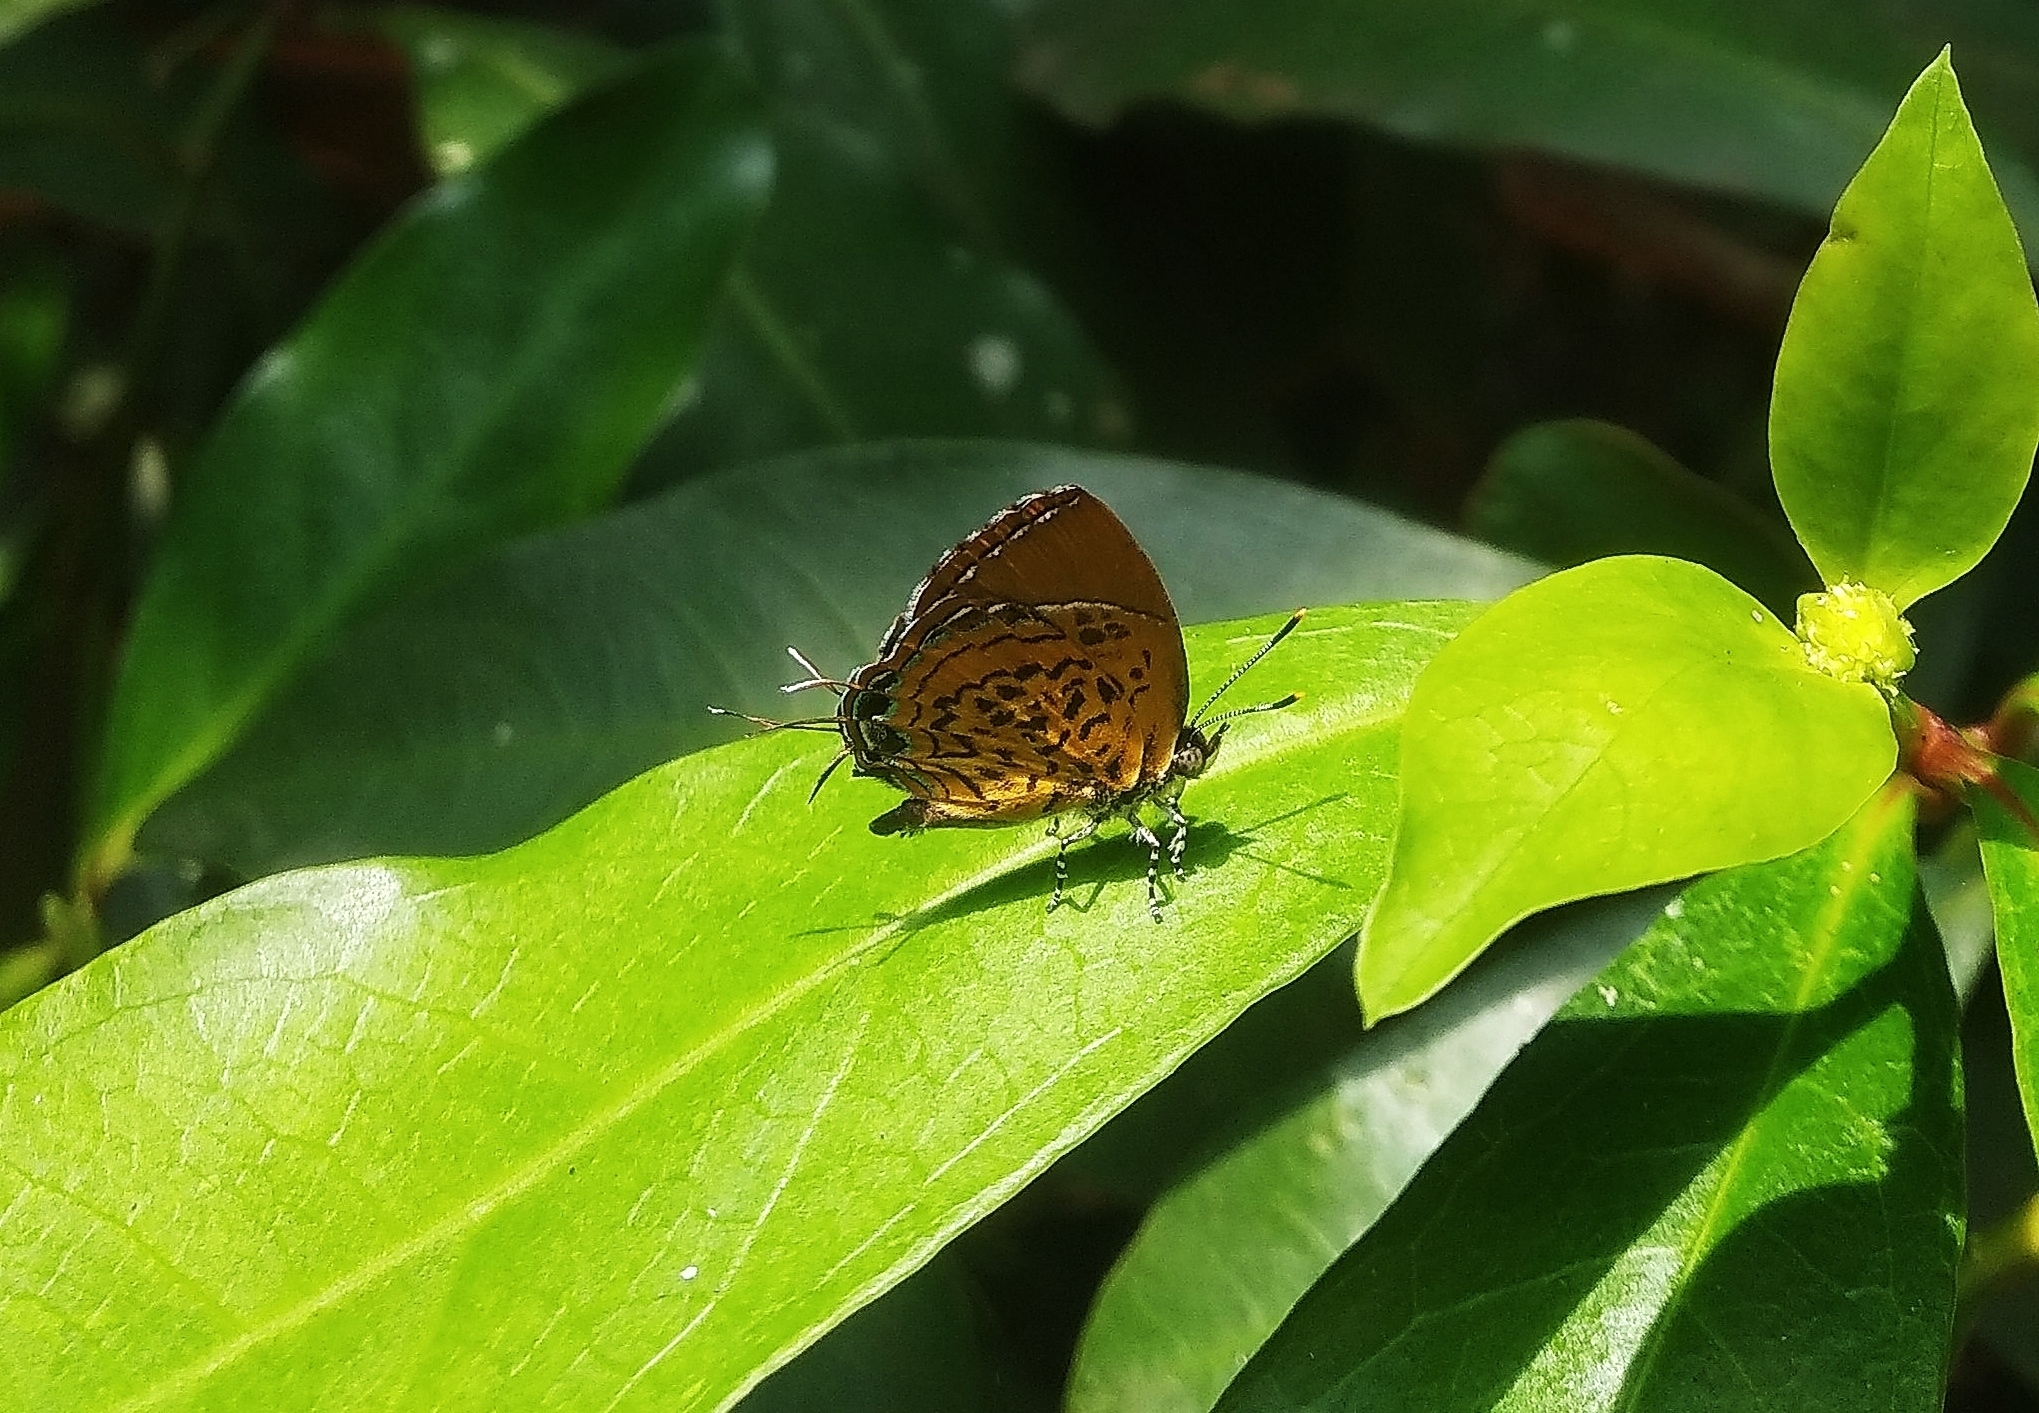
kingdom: Animalia
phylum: Arthropoda
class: Insecta
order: Lepidoptera
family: Lycaenidae
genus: Rathinda
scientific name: Rathinda amor
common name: Monkey puzzle
